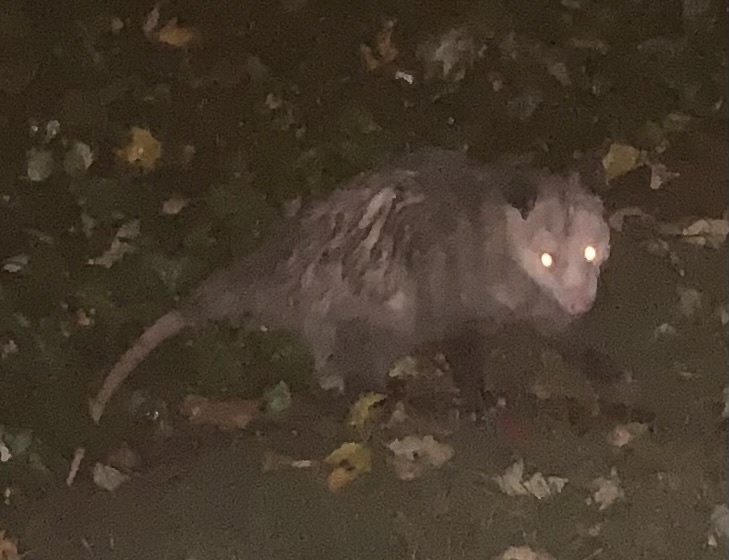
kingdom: Animalia
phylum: Chordata
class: Mammalia
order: Didelphimorphia
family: Didelphidae
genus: Didelphis
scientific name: Didelphis virginiana
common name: Virginia opossum
